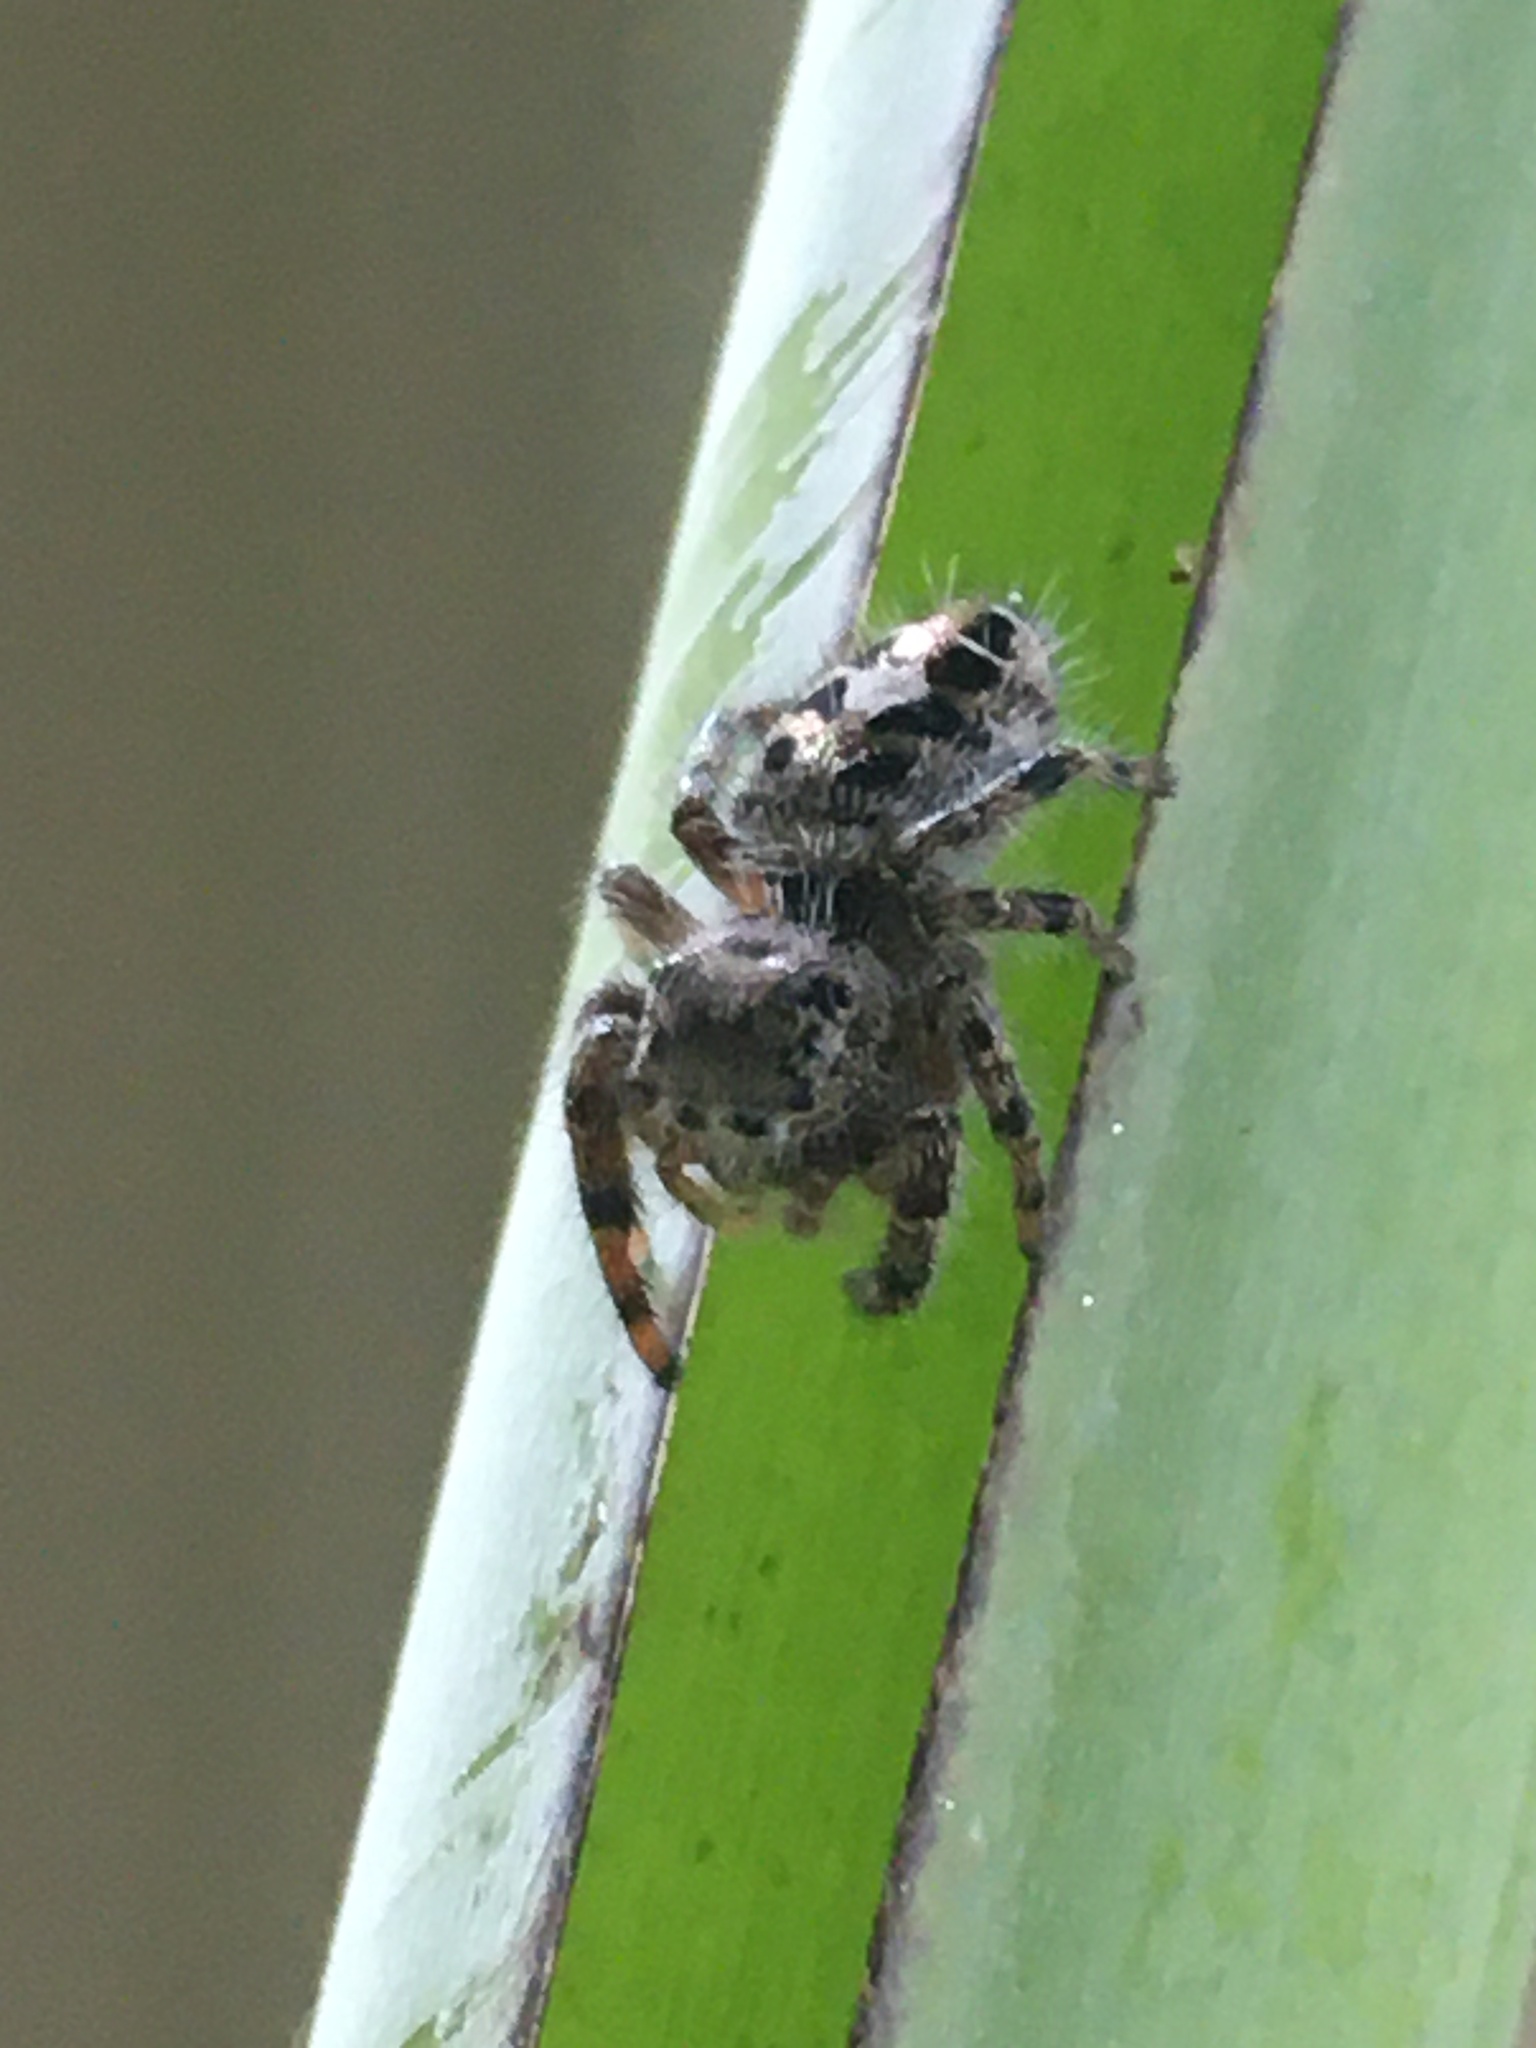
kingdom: Animalia
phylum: Arthropoda
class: Arachnida
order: Araneae
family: Salticidae
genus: Phidippus
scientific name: Phidippus putnami
